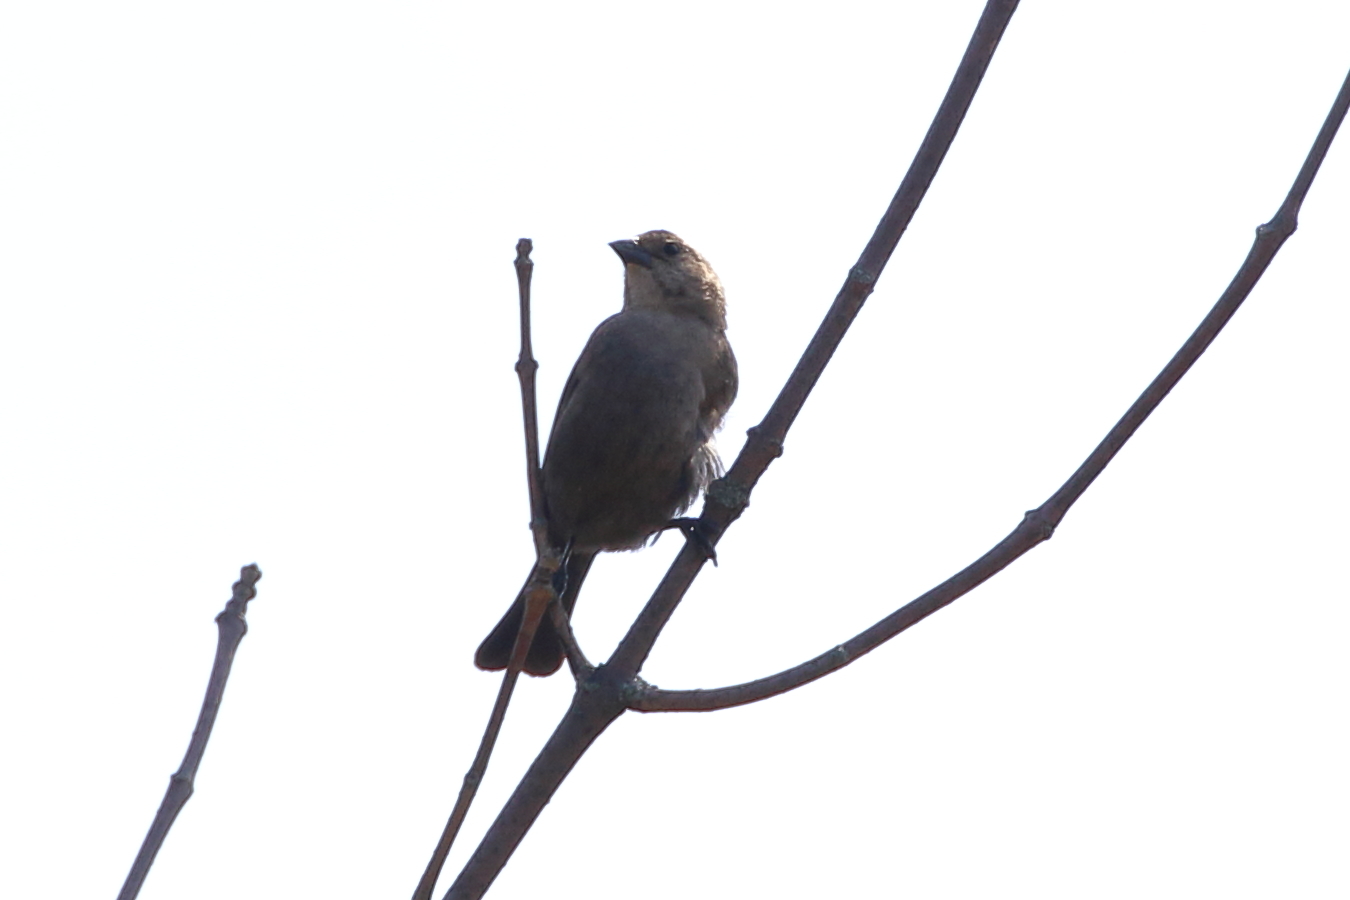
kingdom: Animalia
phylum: Chordata
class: Aves
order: Passeriformes
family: Icteridae
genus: Molothrus
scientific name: Molothrus ater
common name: Brown-headed cowbird
